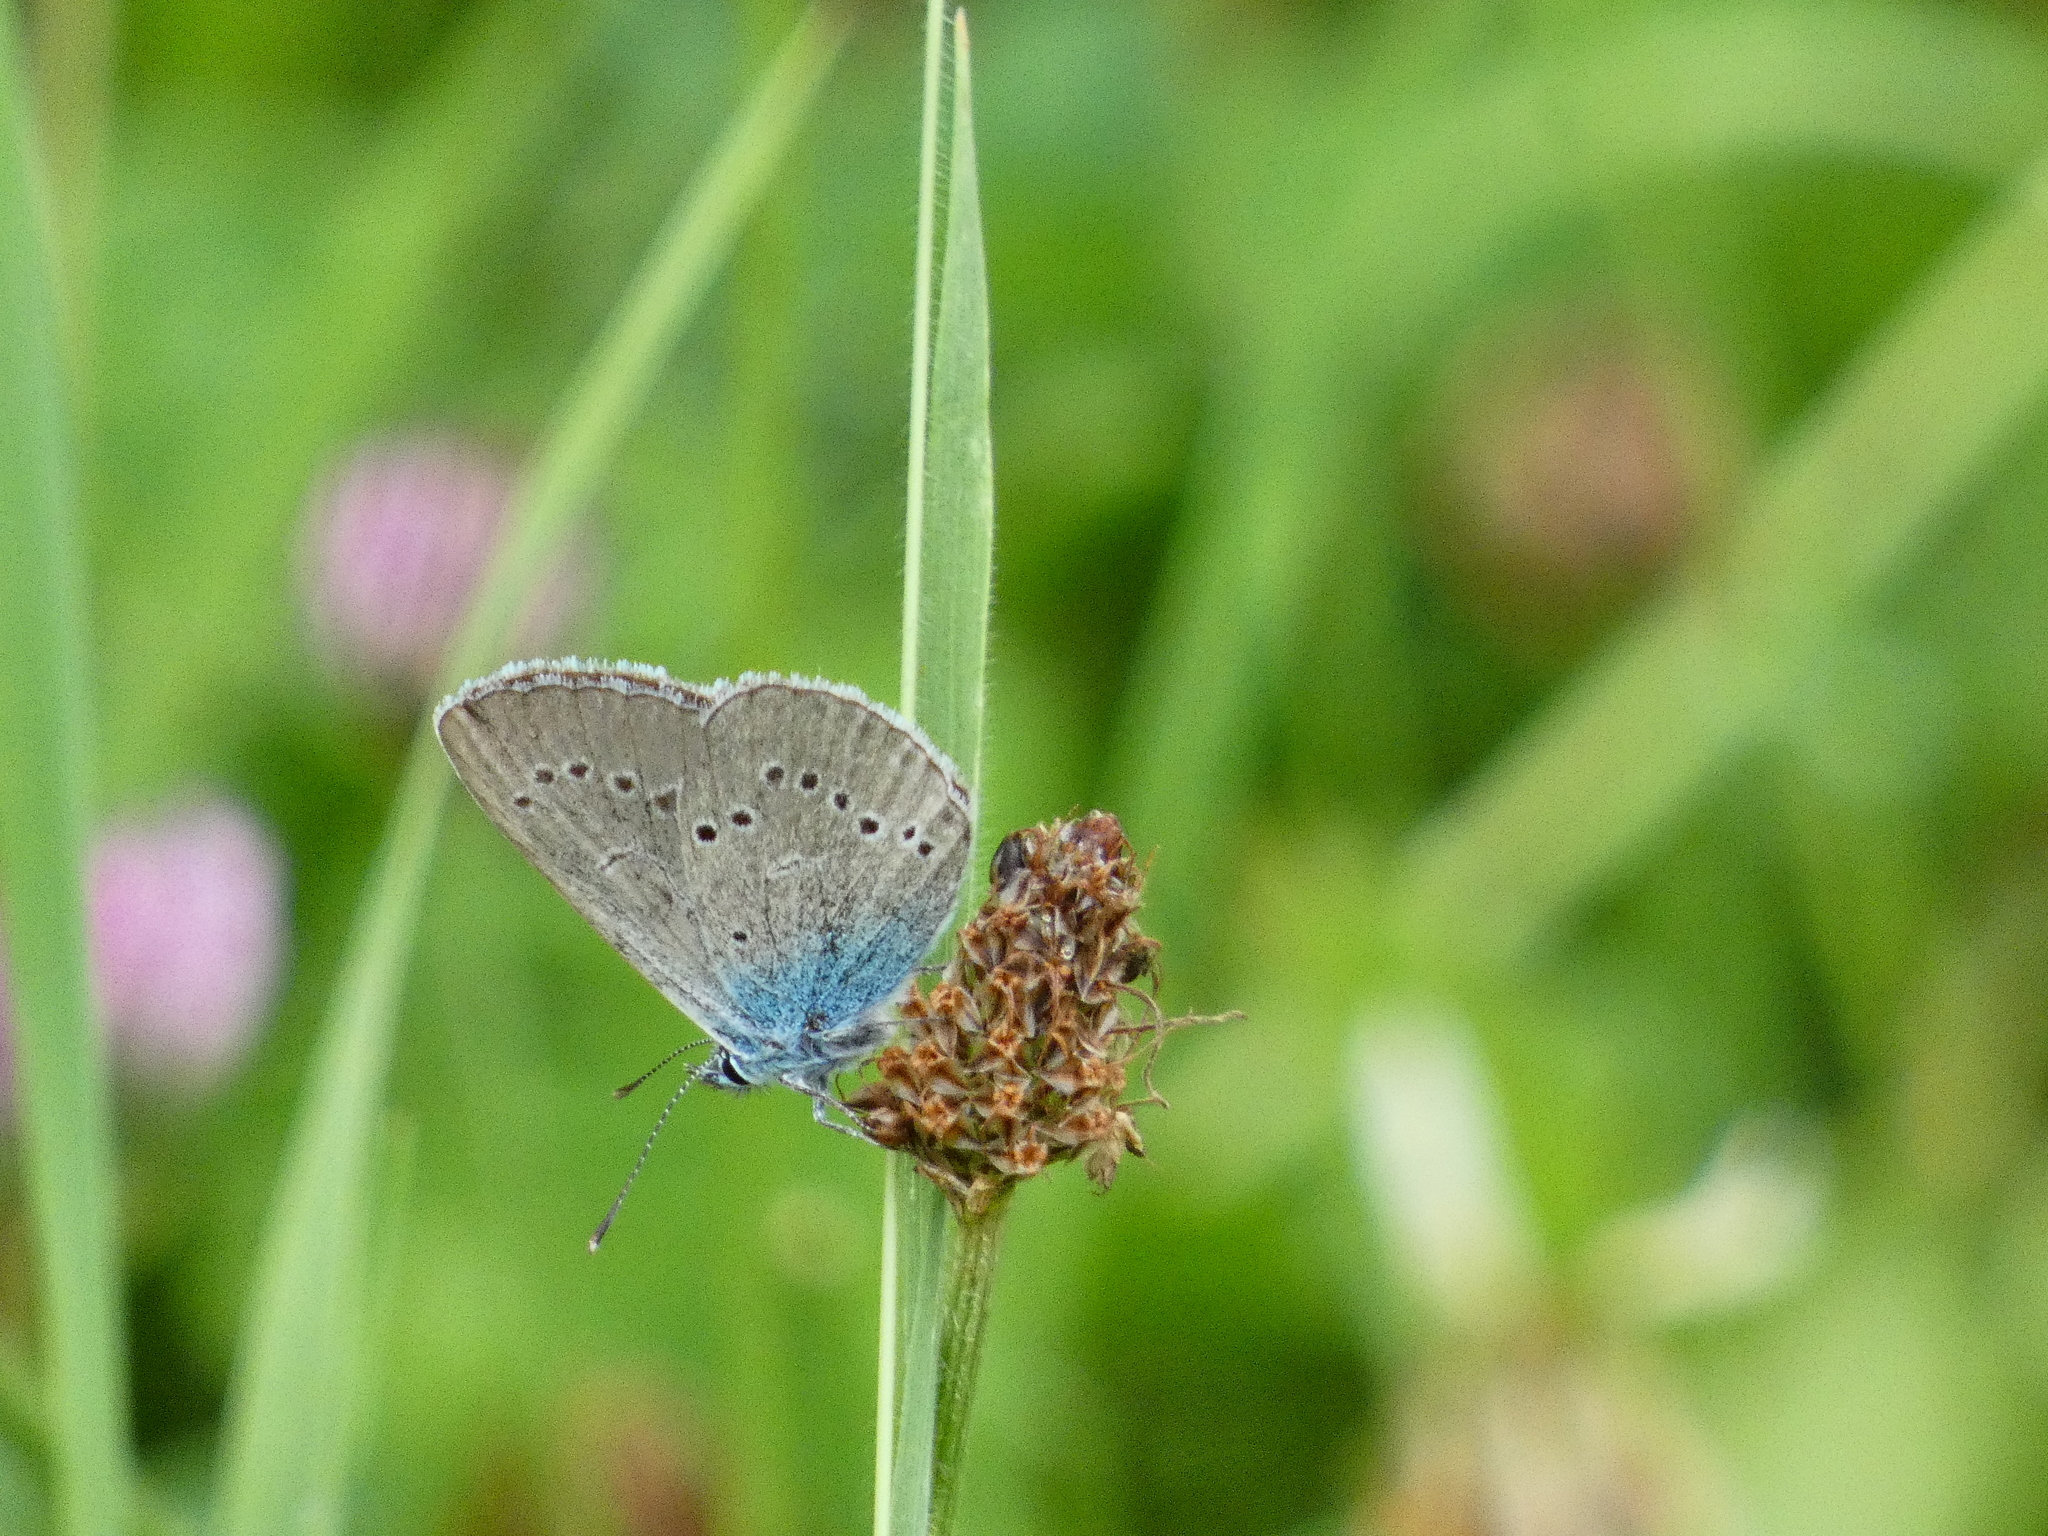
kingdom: Animalia
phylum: Arthropoda
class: Insecta
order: Lepidoptera
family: Lycaenidae
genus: Cyaniris
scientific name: Cyaniris semiargus
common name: Mazarine blue
